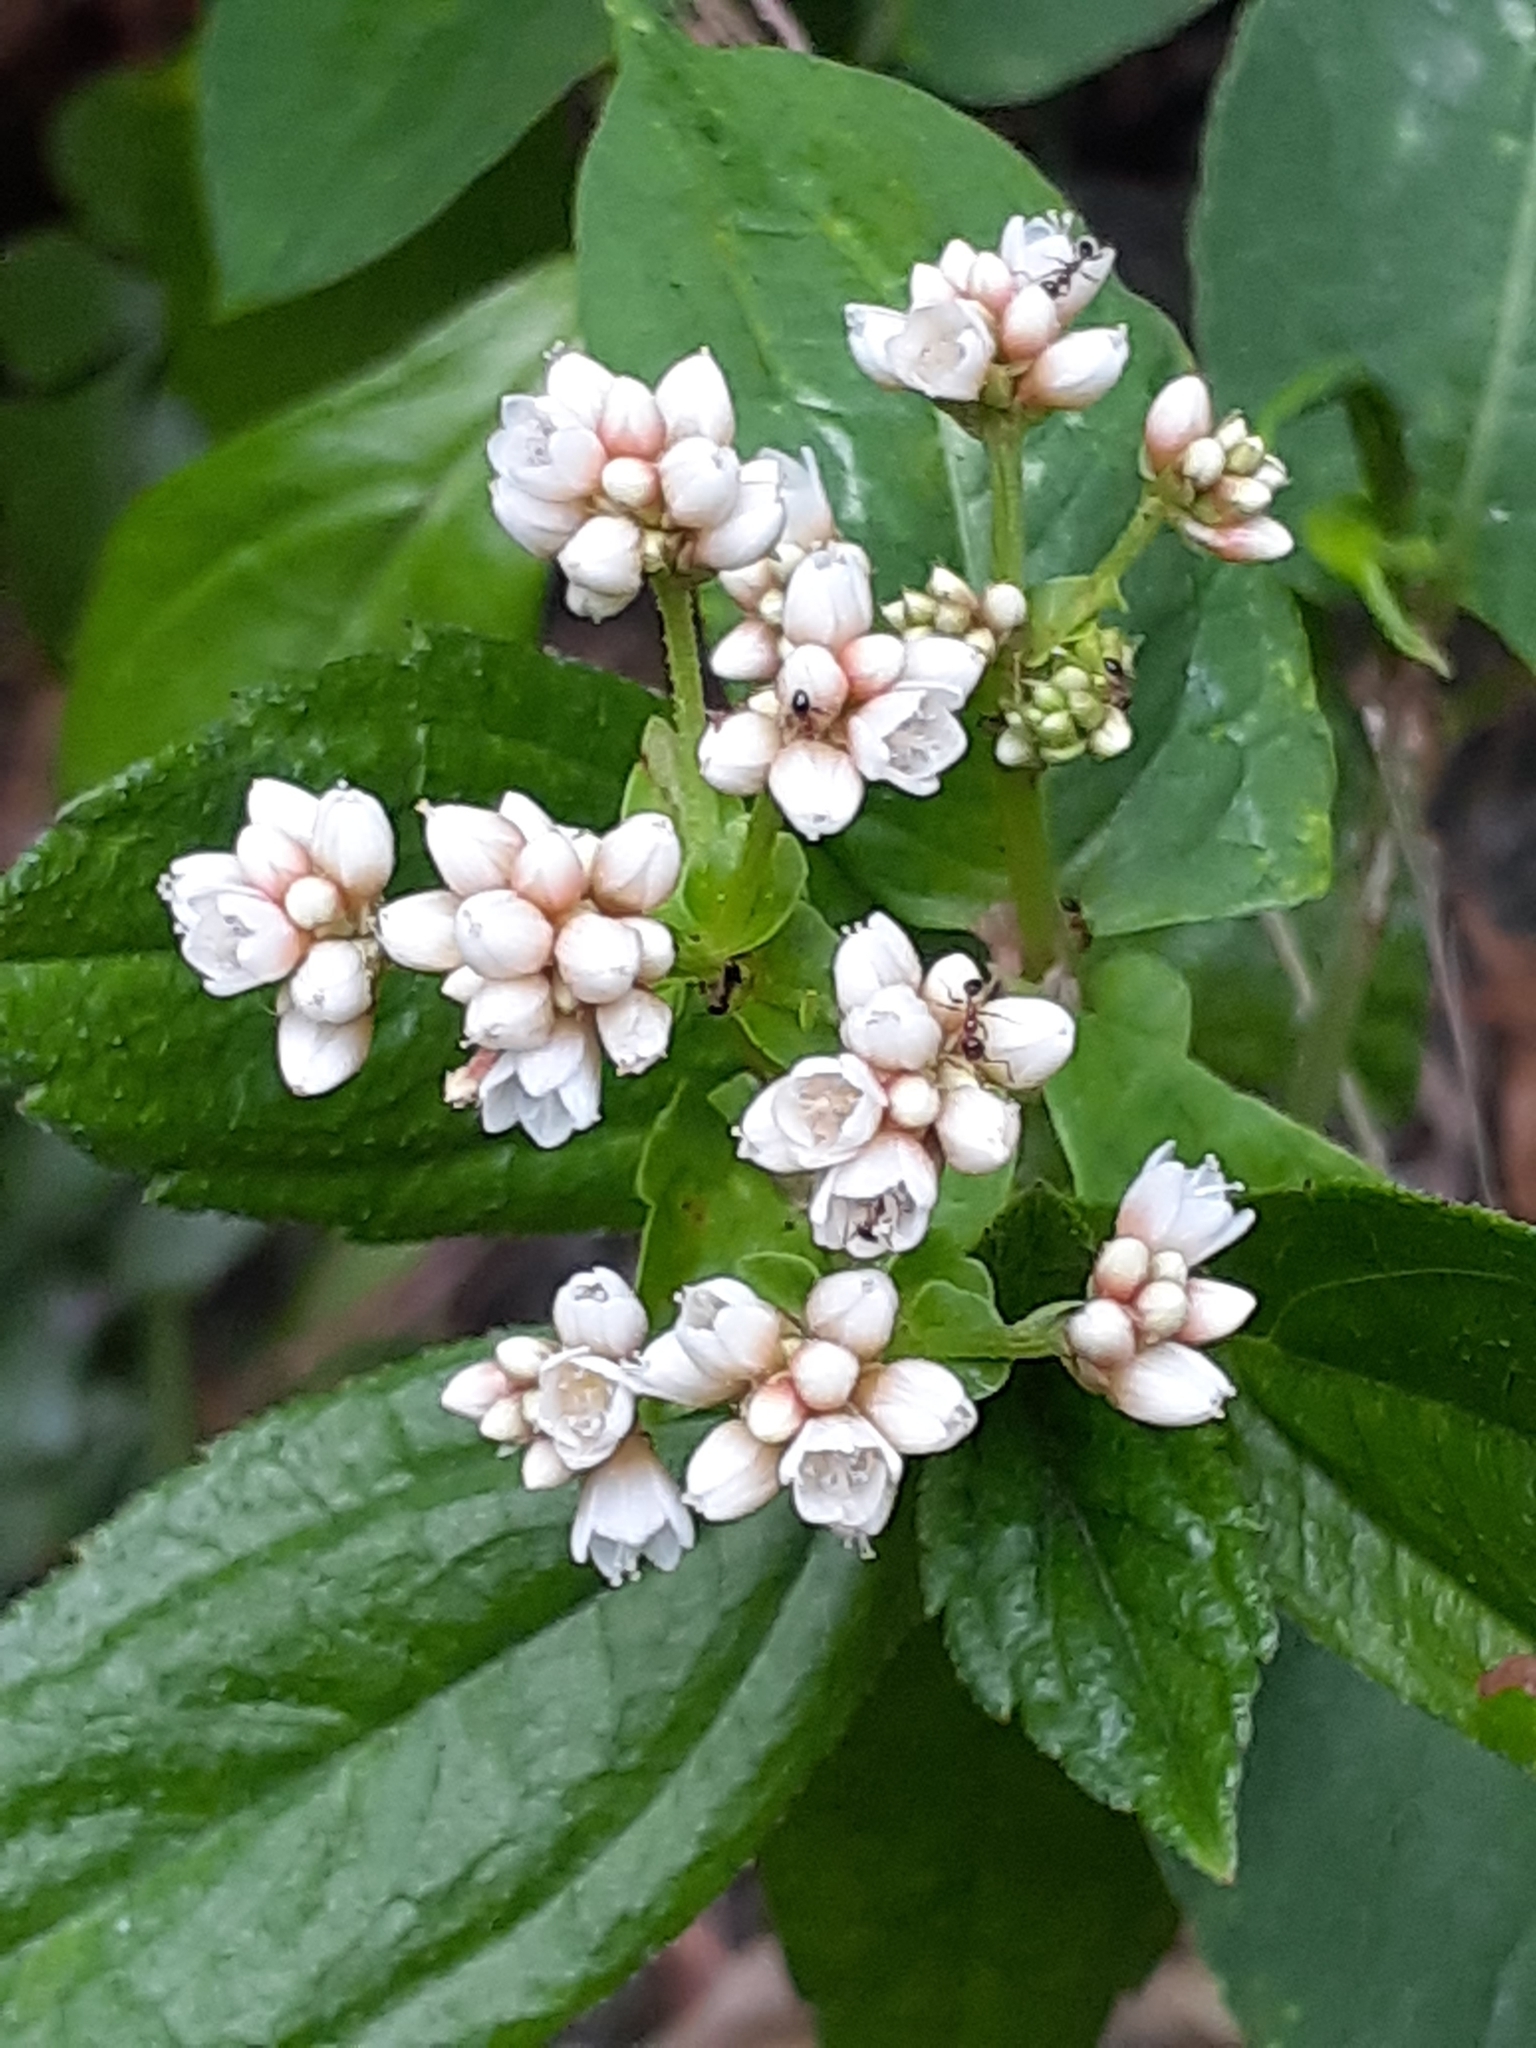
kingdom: Plantae
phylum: Tracheophyta
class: Magnoliopsida
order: Caryophyllales
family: Polygonaceae
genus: Persicaria
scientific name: Persicaria chinensis
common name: Chinese knotweed
